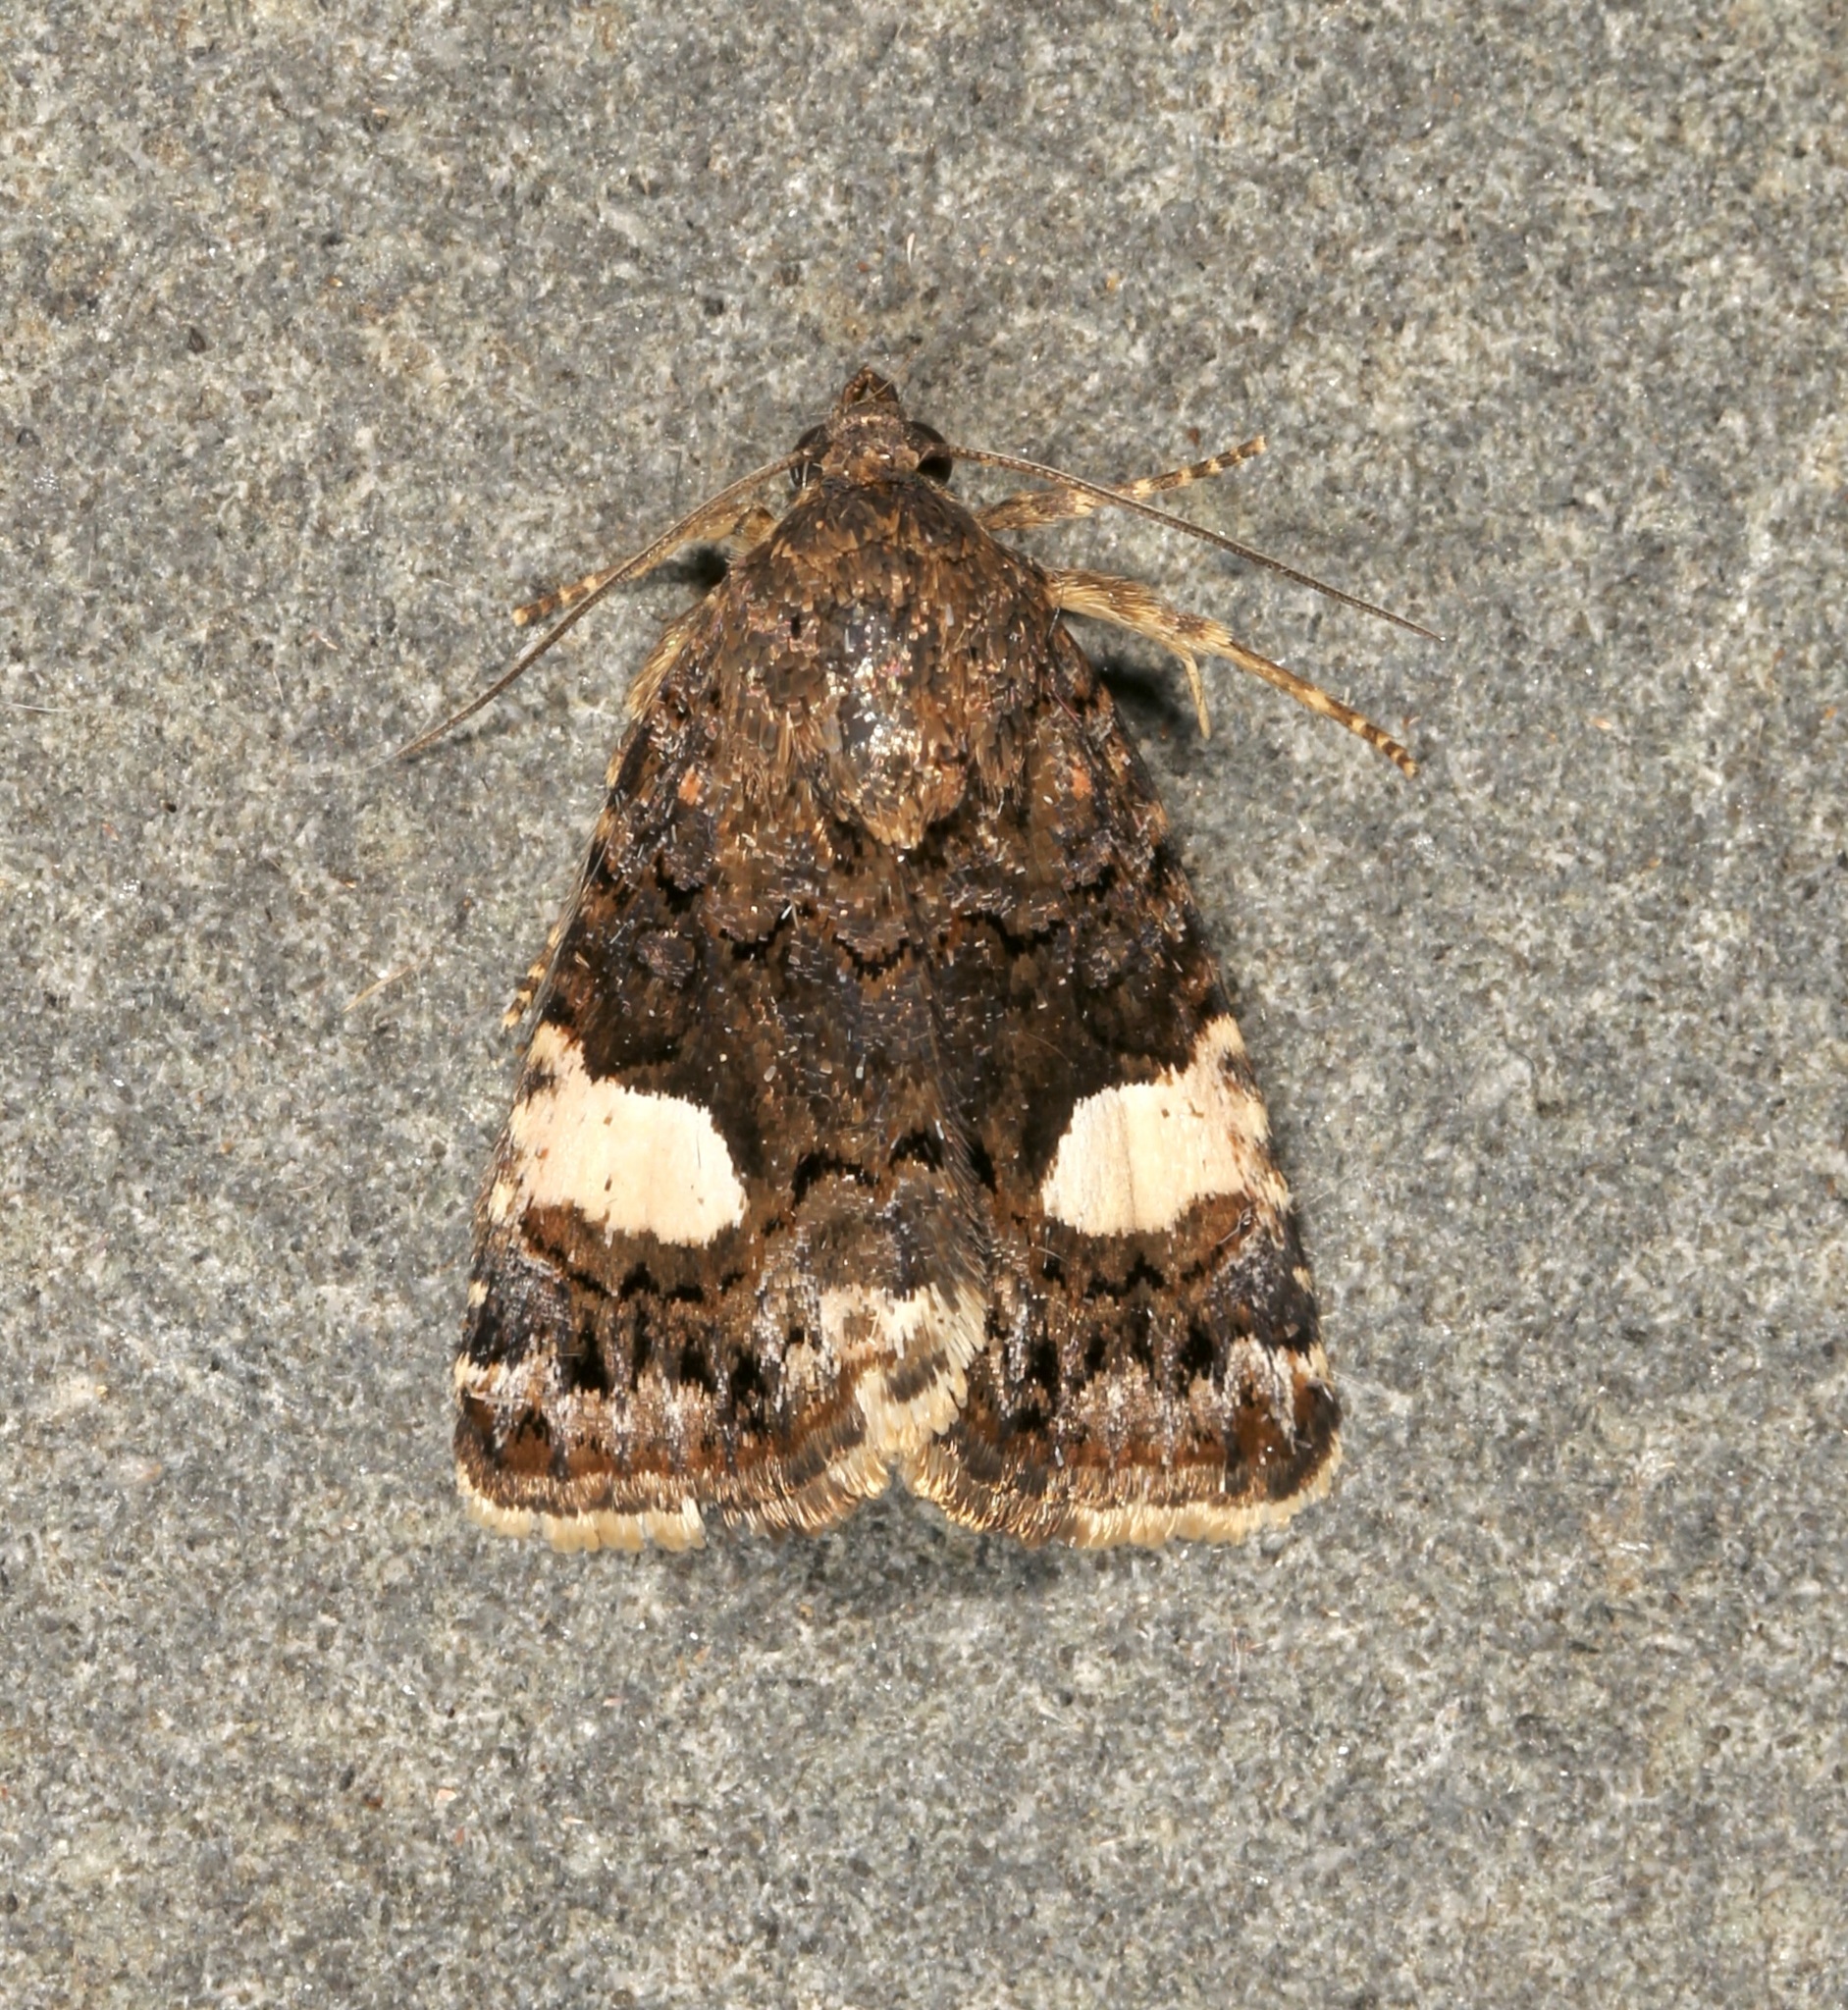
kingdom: Animalia
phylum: Arthropoda
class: Insecta
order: Lepidoptera
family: Erebidae
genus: Tyta
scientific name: Tyta luctuosa
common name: Four-spotted
